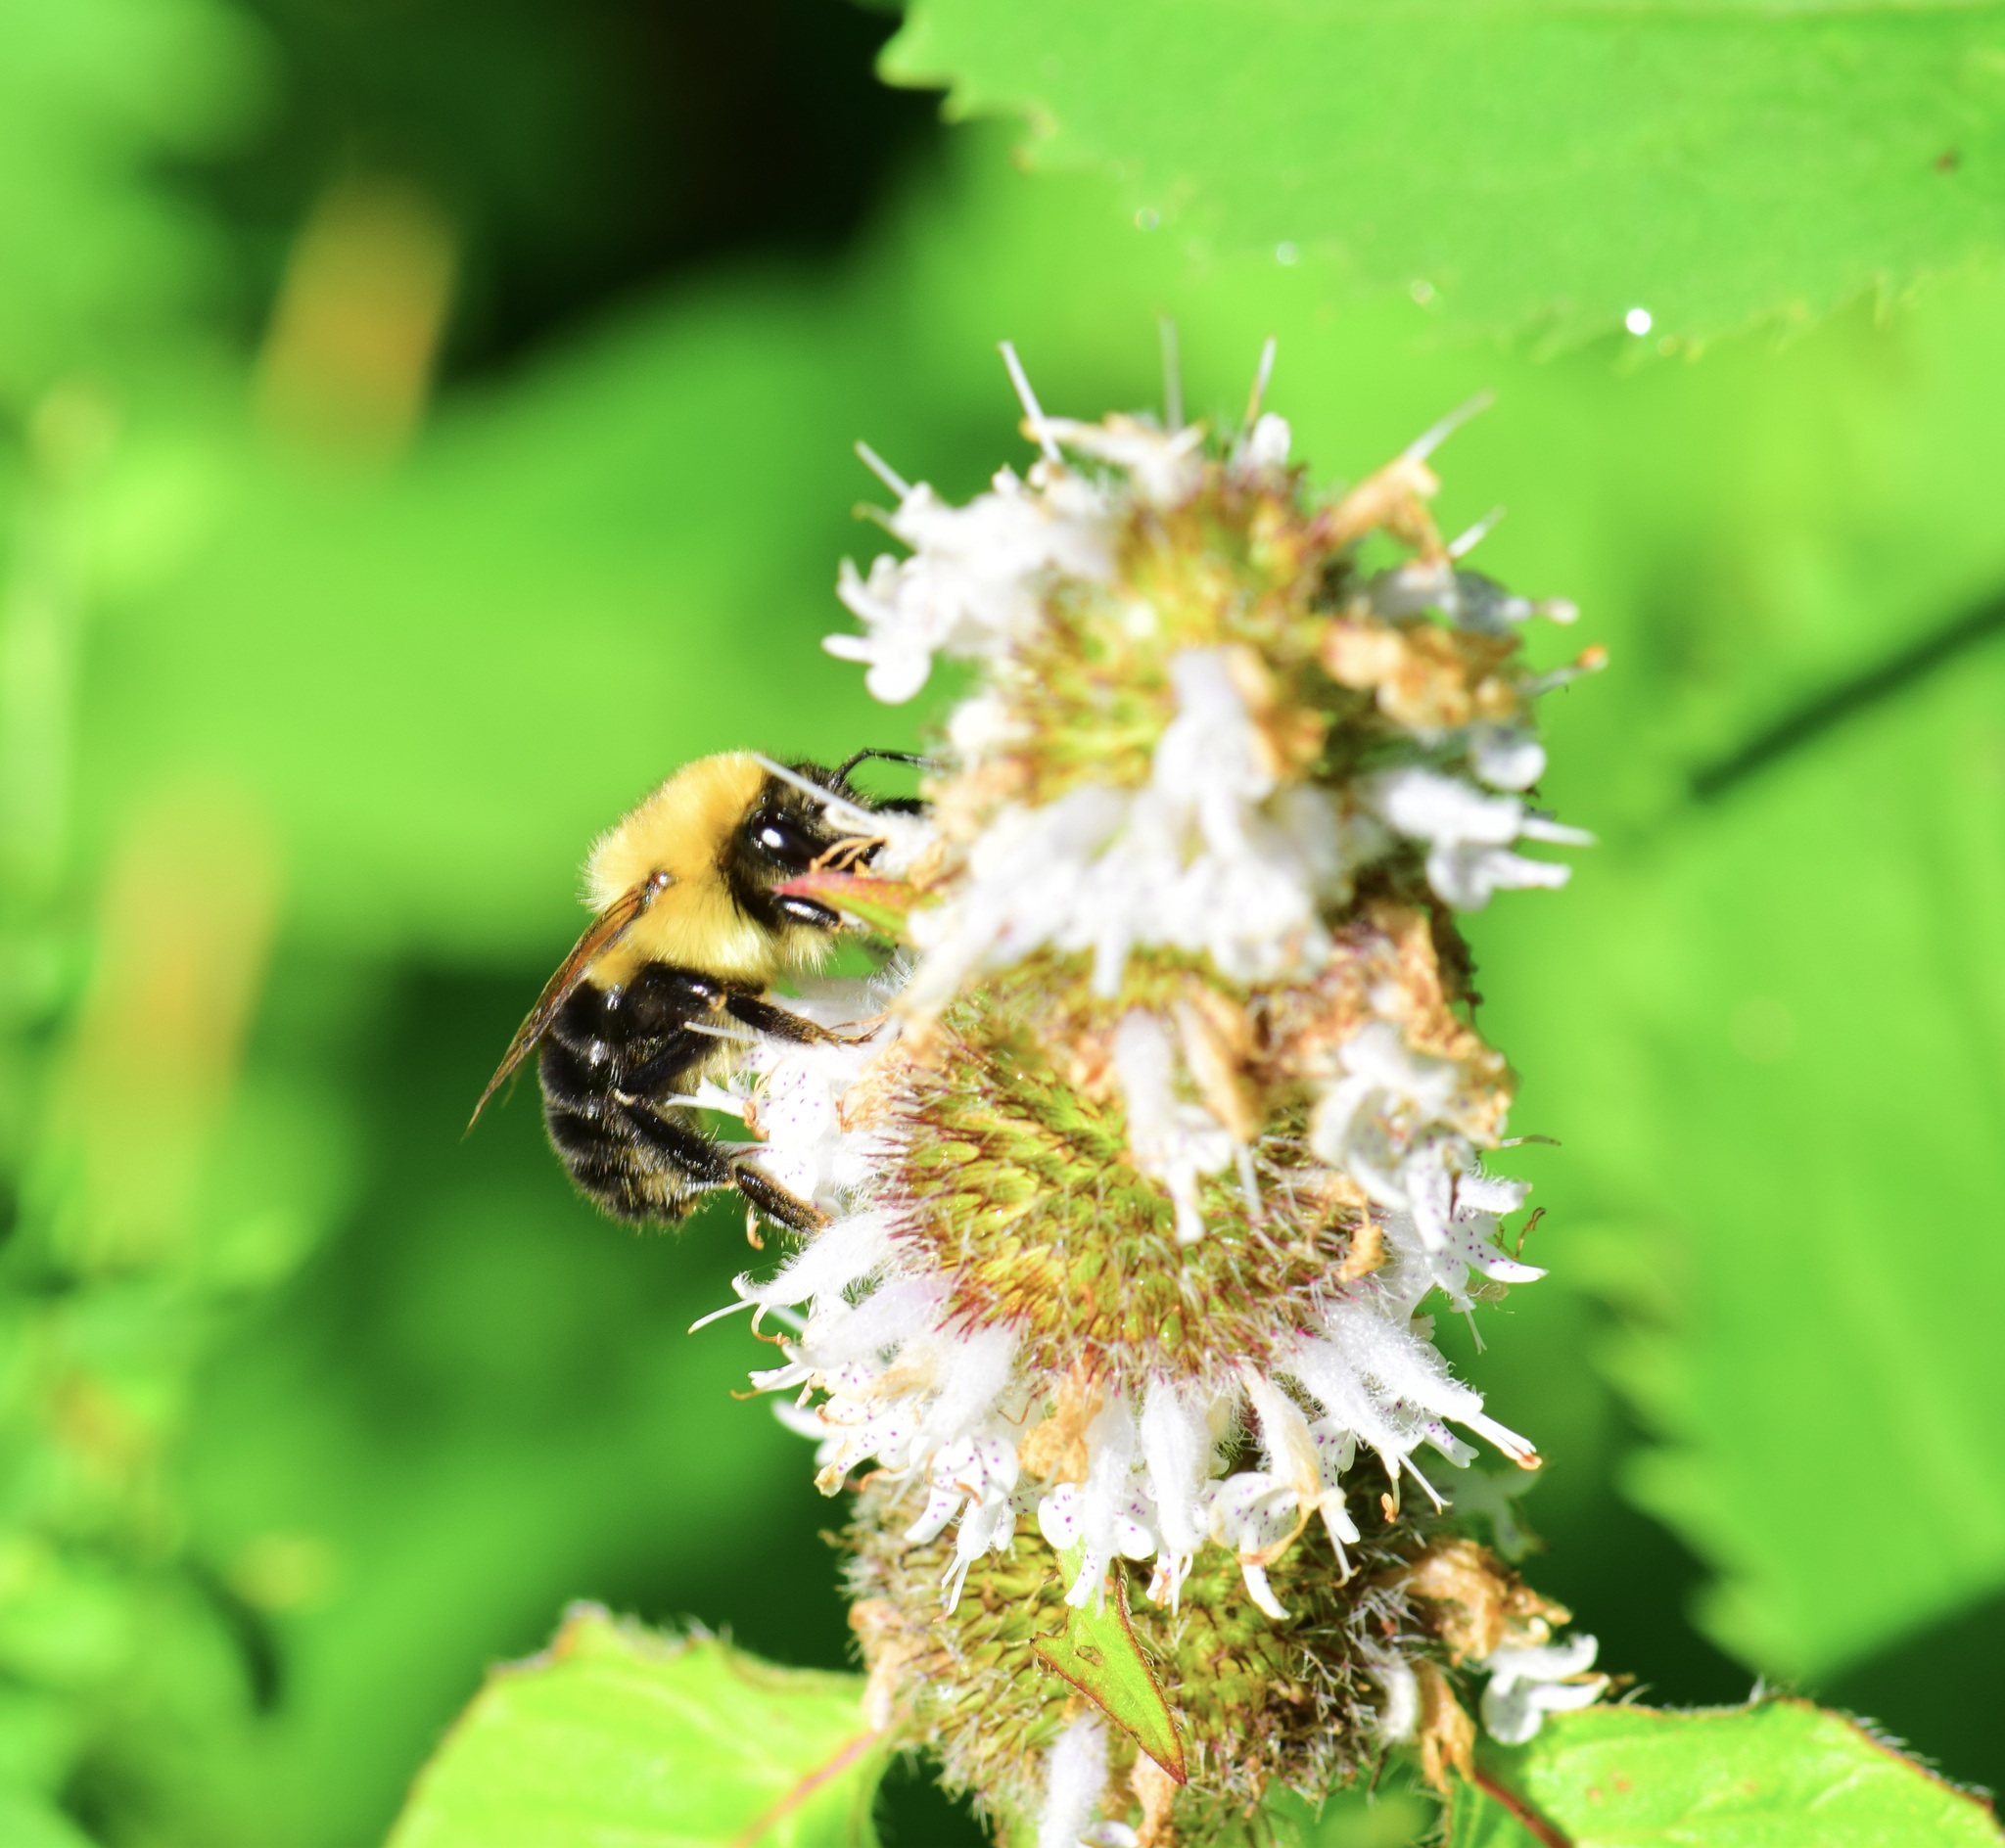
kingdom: Animalia
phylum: Arthropoda
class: Insecta
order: Hymenoptera
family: Apidae
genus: Bombus
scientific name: Bombus bimaculatus
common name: Two-spotted bumble bee
